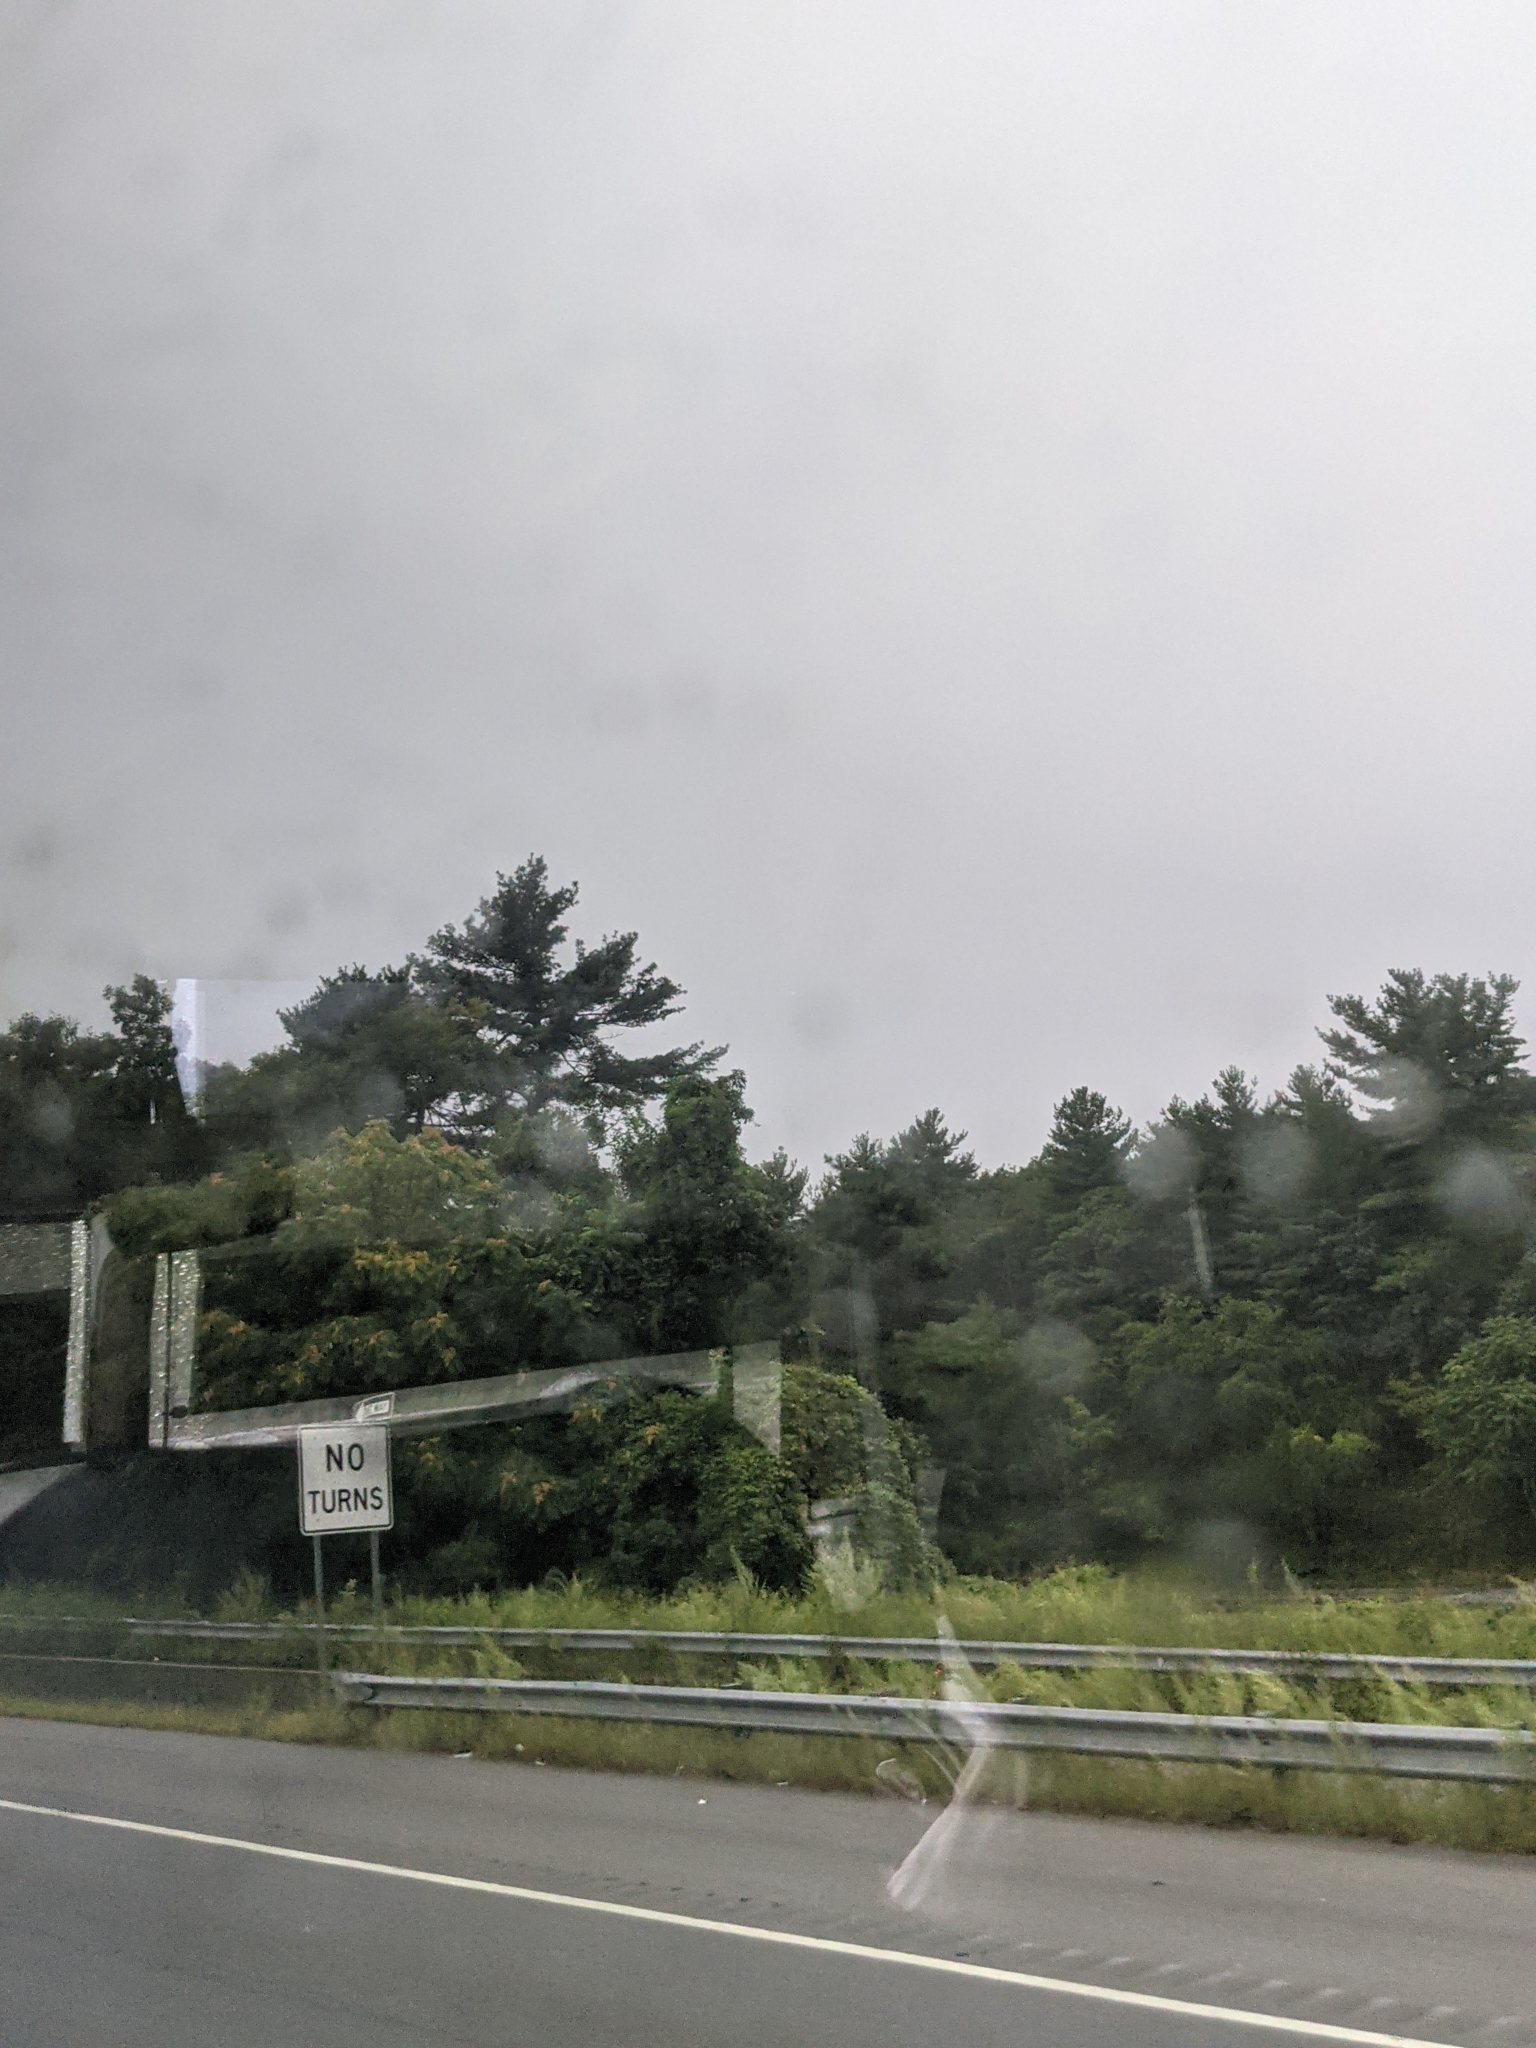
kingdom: Plantae
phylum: Tracheophyta
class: Pinopsida
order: Pinales
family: Pinaceae
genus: Pinus
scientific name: Pinus strobus
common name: Weymouth pine
